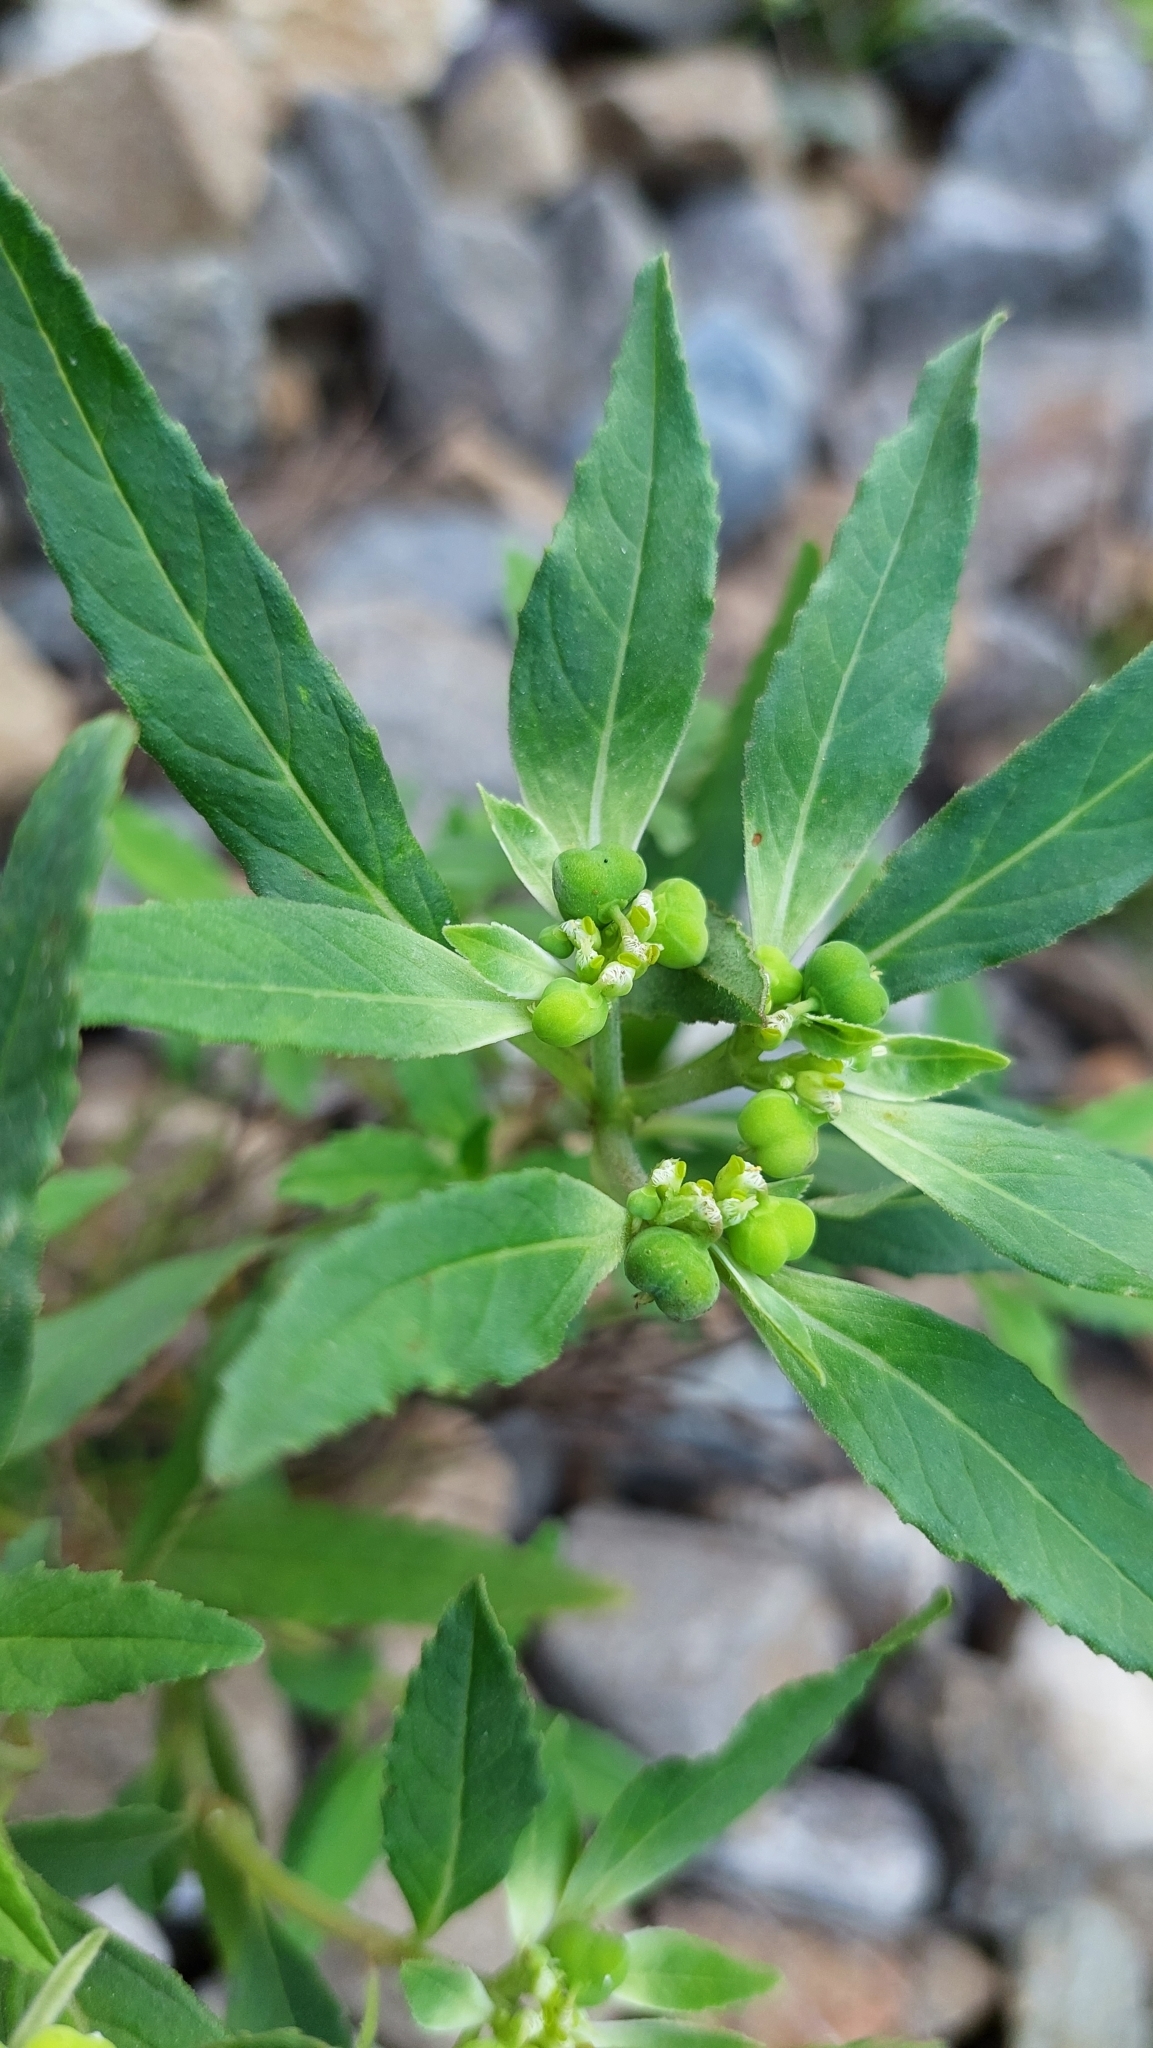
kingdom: Plantae
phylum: Tracheophyta
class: Magnoliopsida
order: Malpighiales
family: Euphorbiaceae
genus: Euphorbia
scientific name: Euphorbia davidii
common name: David's spurge
